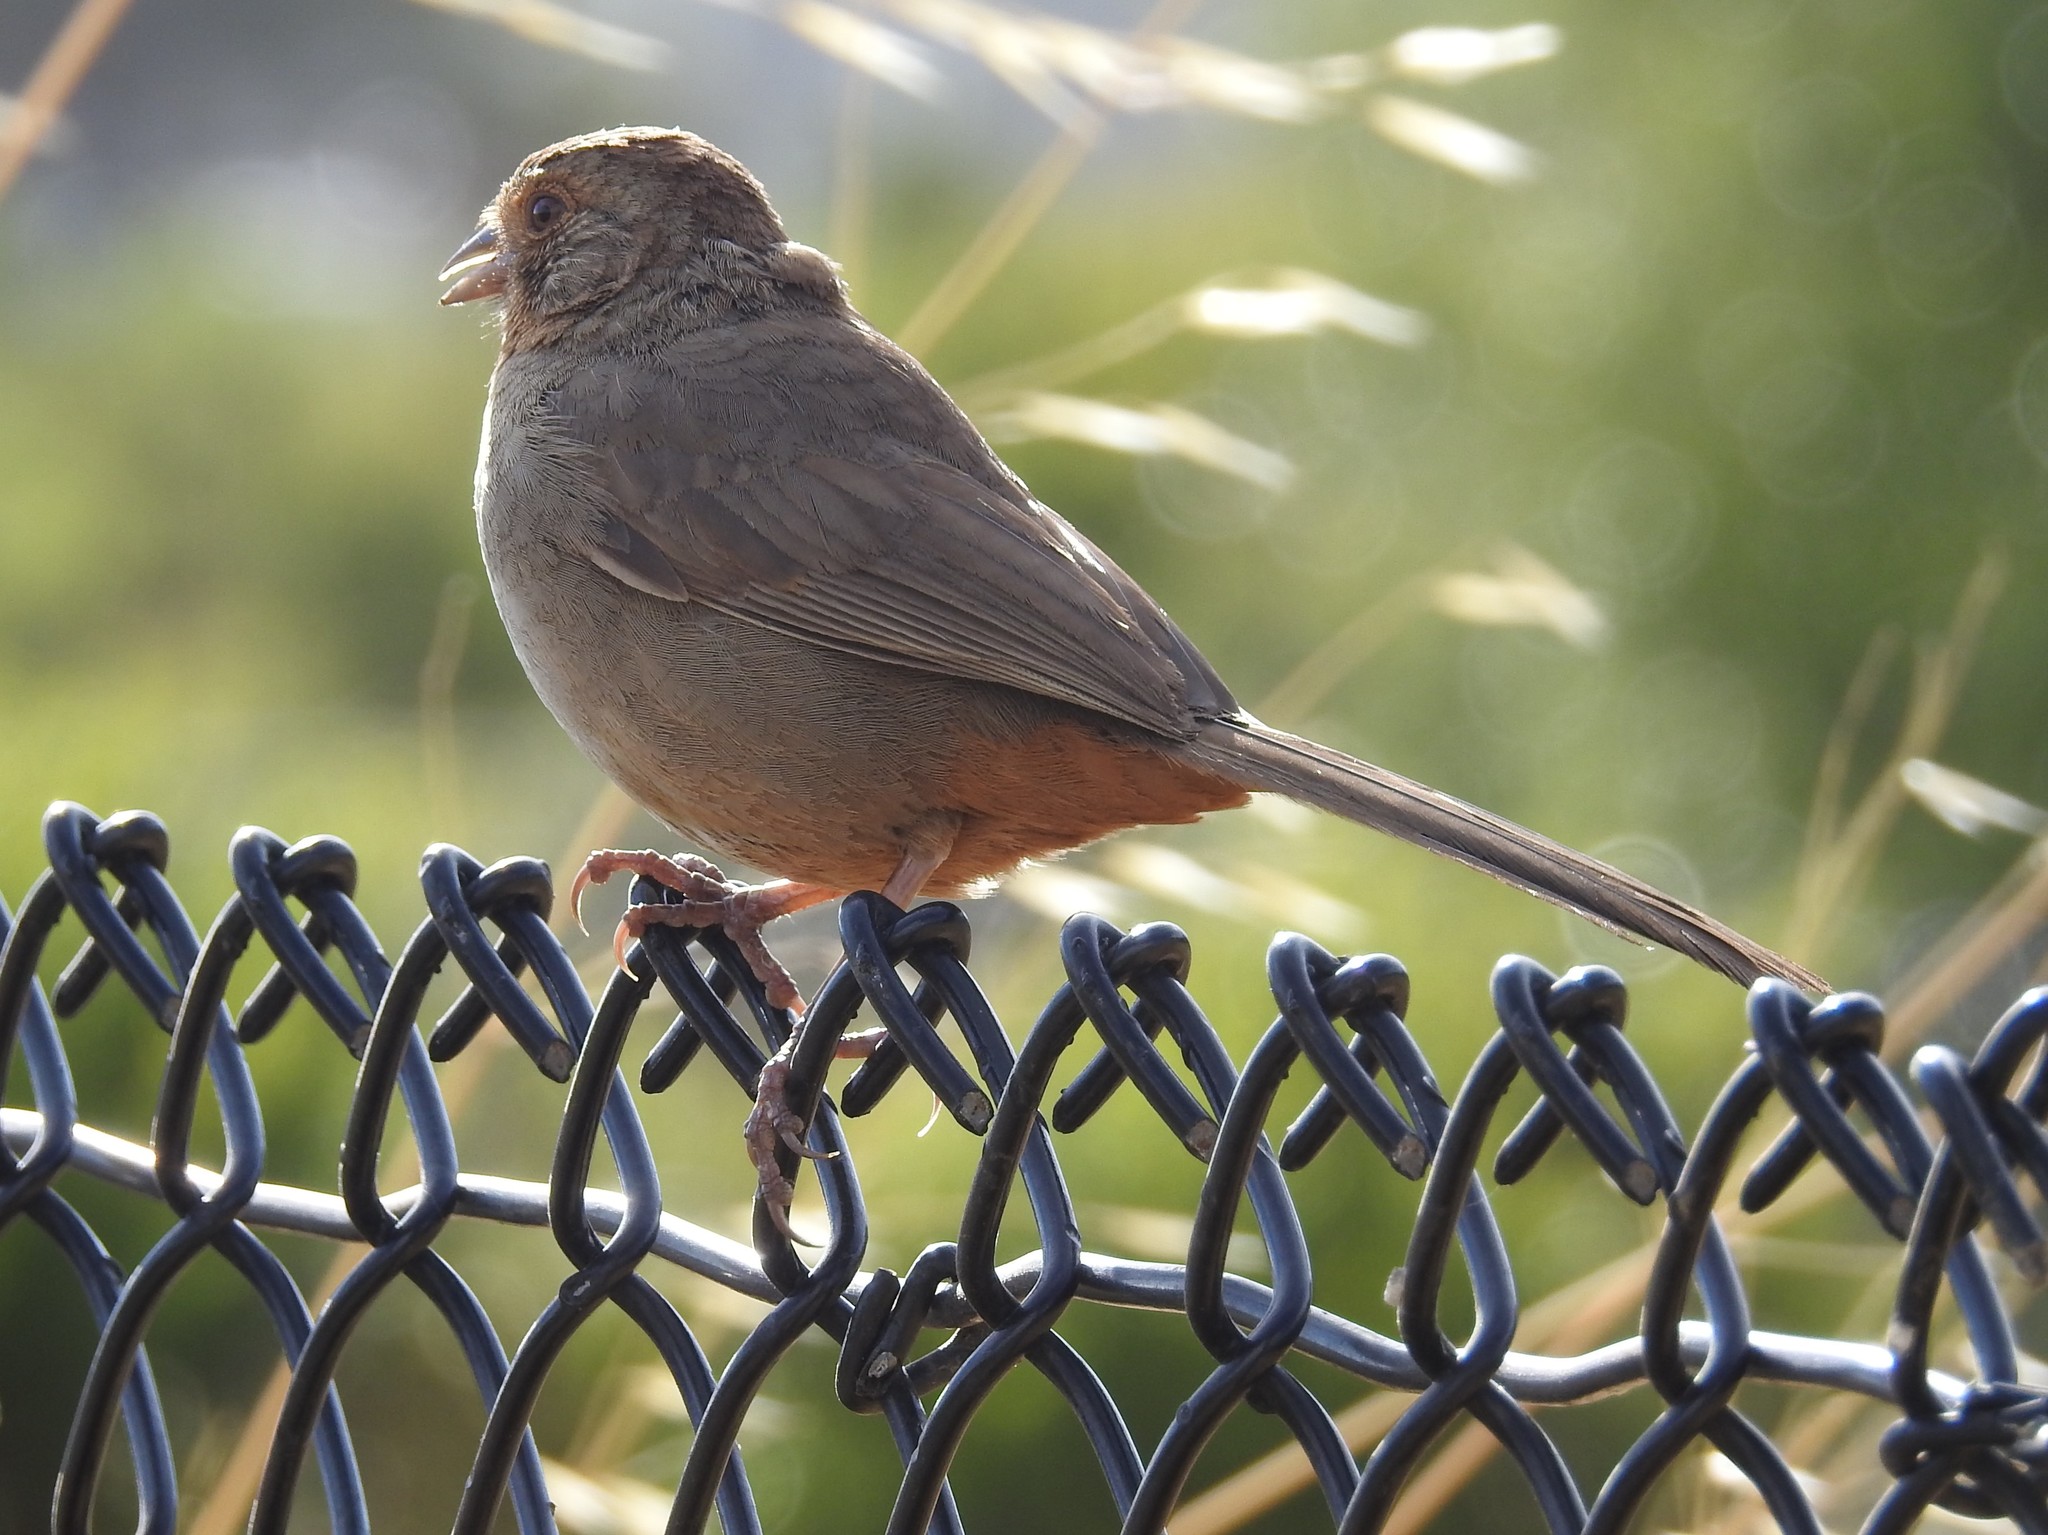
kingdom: Animalia
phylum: Chordata
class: Aves
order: Passeriformes
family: Passerellidae
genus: Melozone
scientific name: Melozone crissalis
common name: California towhee
